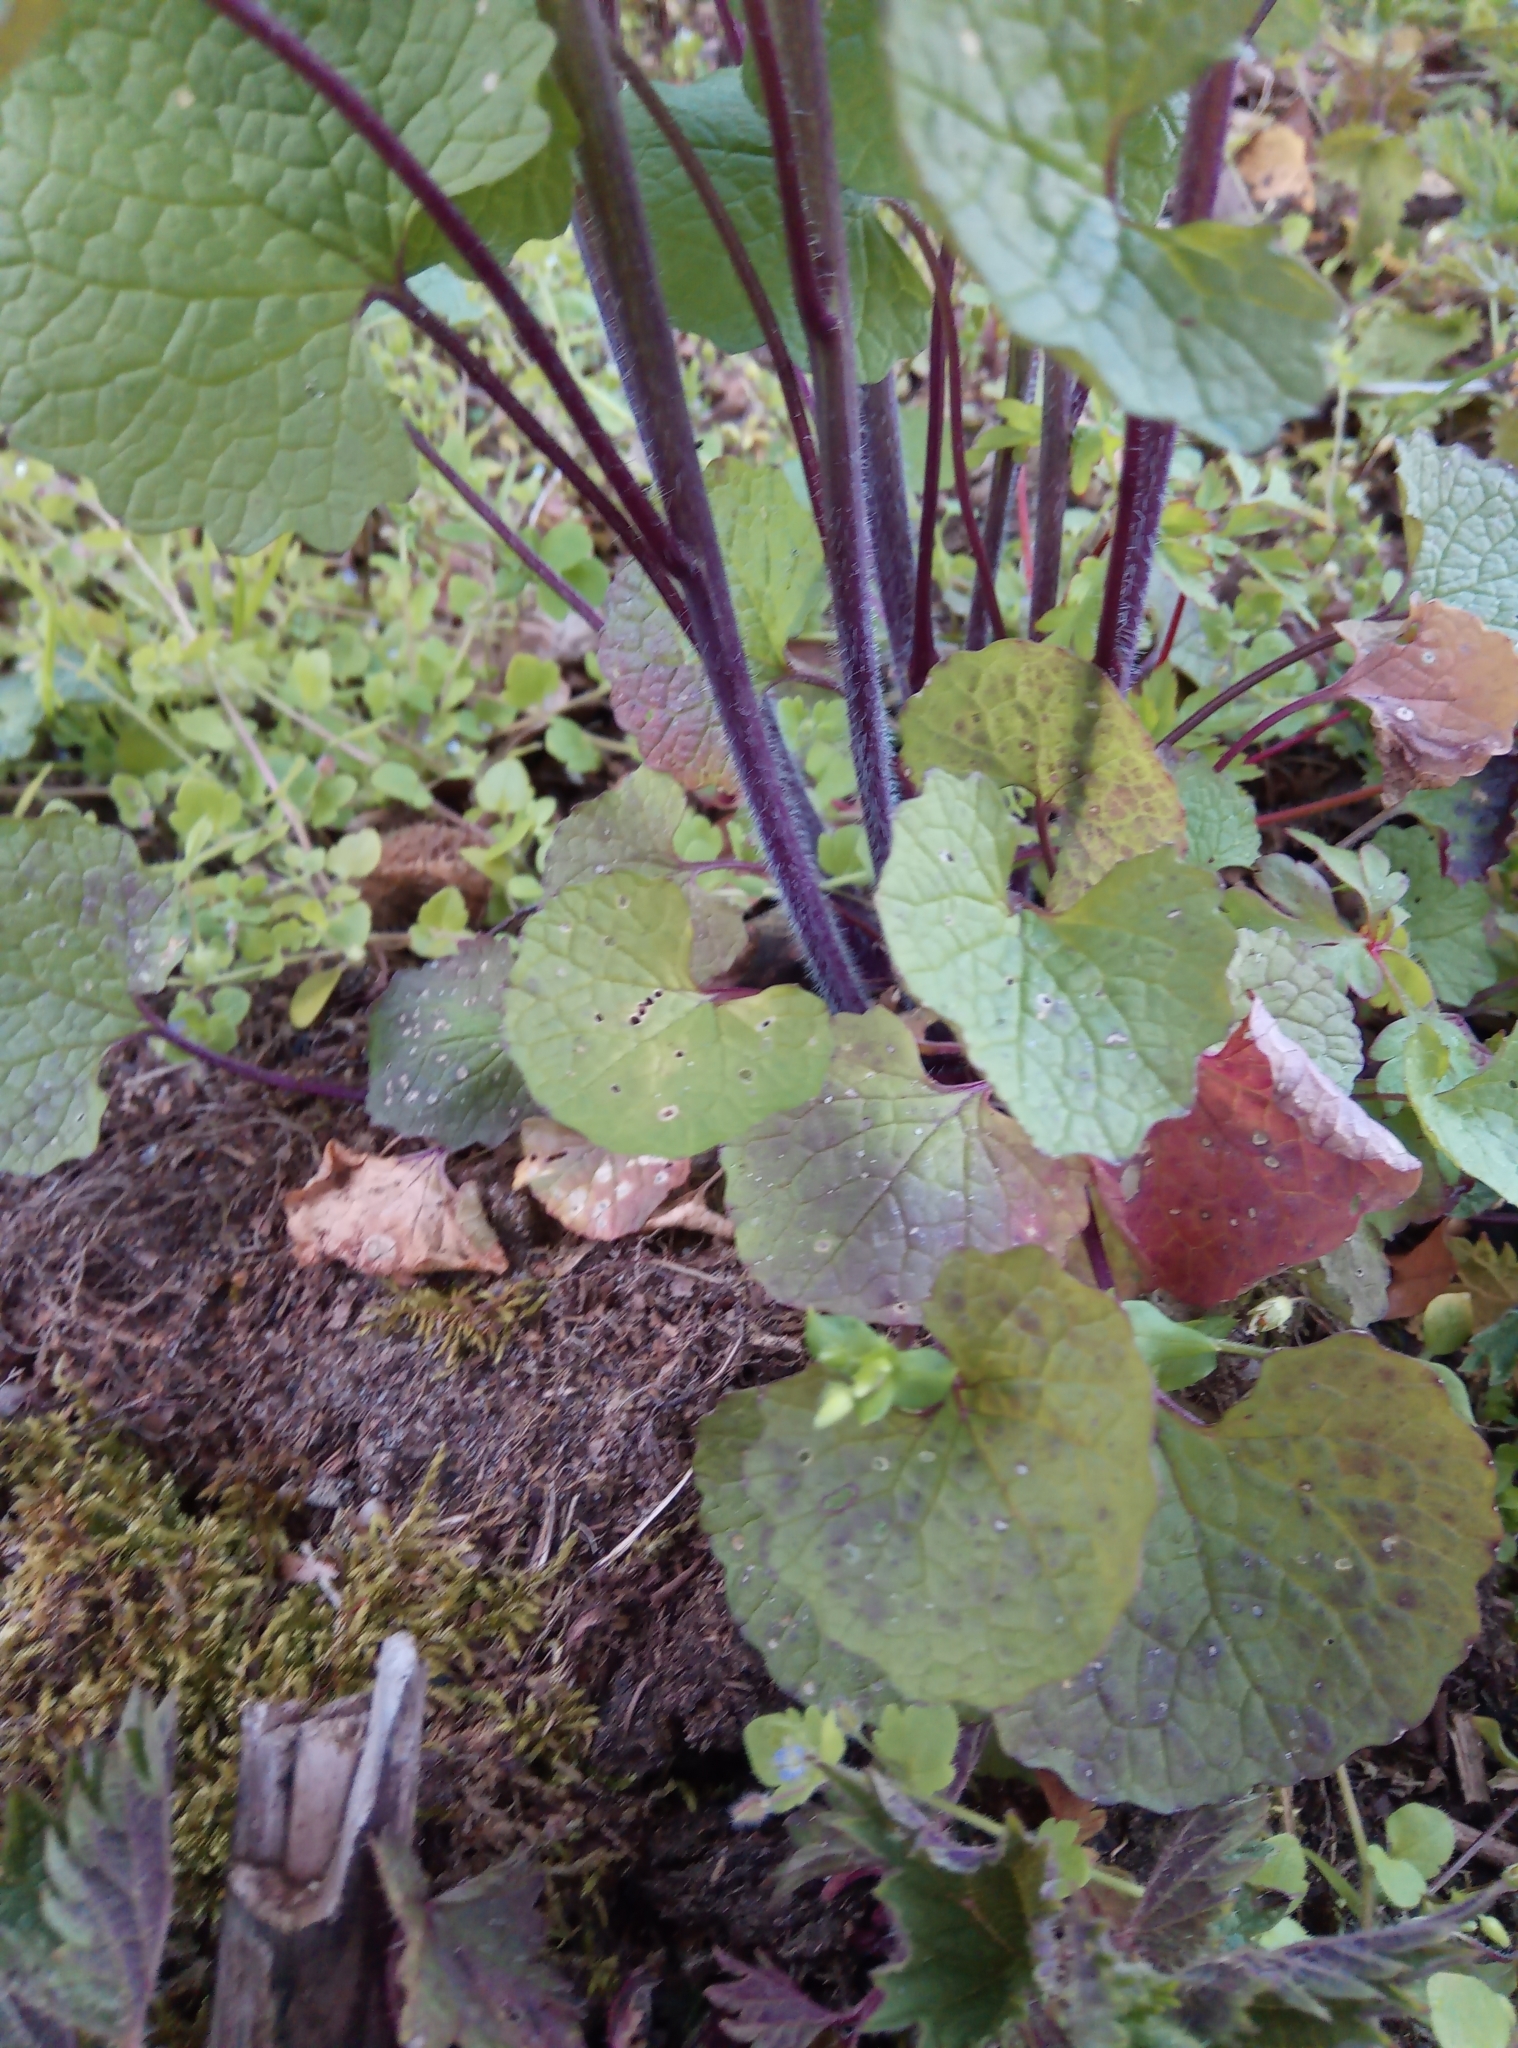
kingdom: Plantae
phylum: Tracheophyta
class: Magnoliopsida
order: Brassicales
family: Brassicaceae
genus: Alliaria
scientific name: Alliaria petiolata
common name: Garlic mustard
